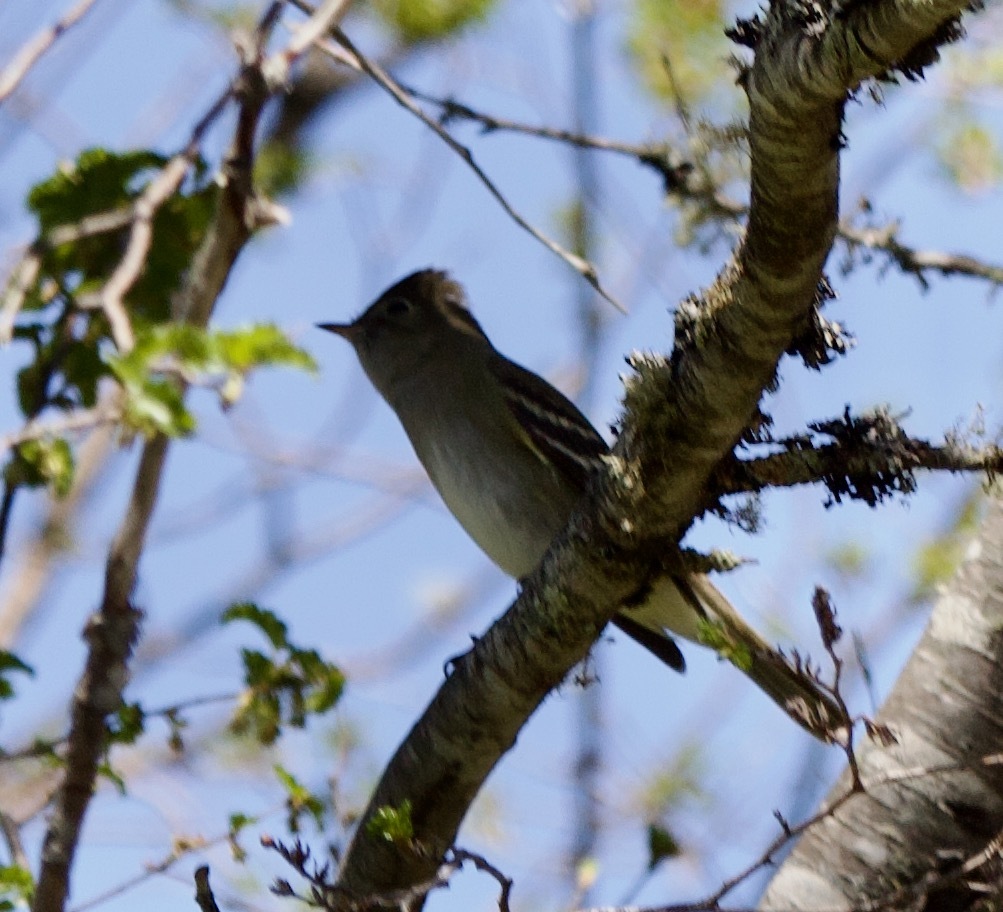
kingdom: Animalia
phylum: Chordata
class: Aves
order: Passeriformes
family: Tyrannidae
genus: Elaenia
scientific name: Elaenia albiceps
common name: White-crested elaenia
